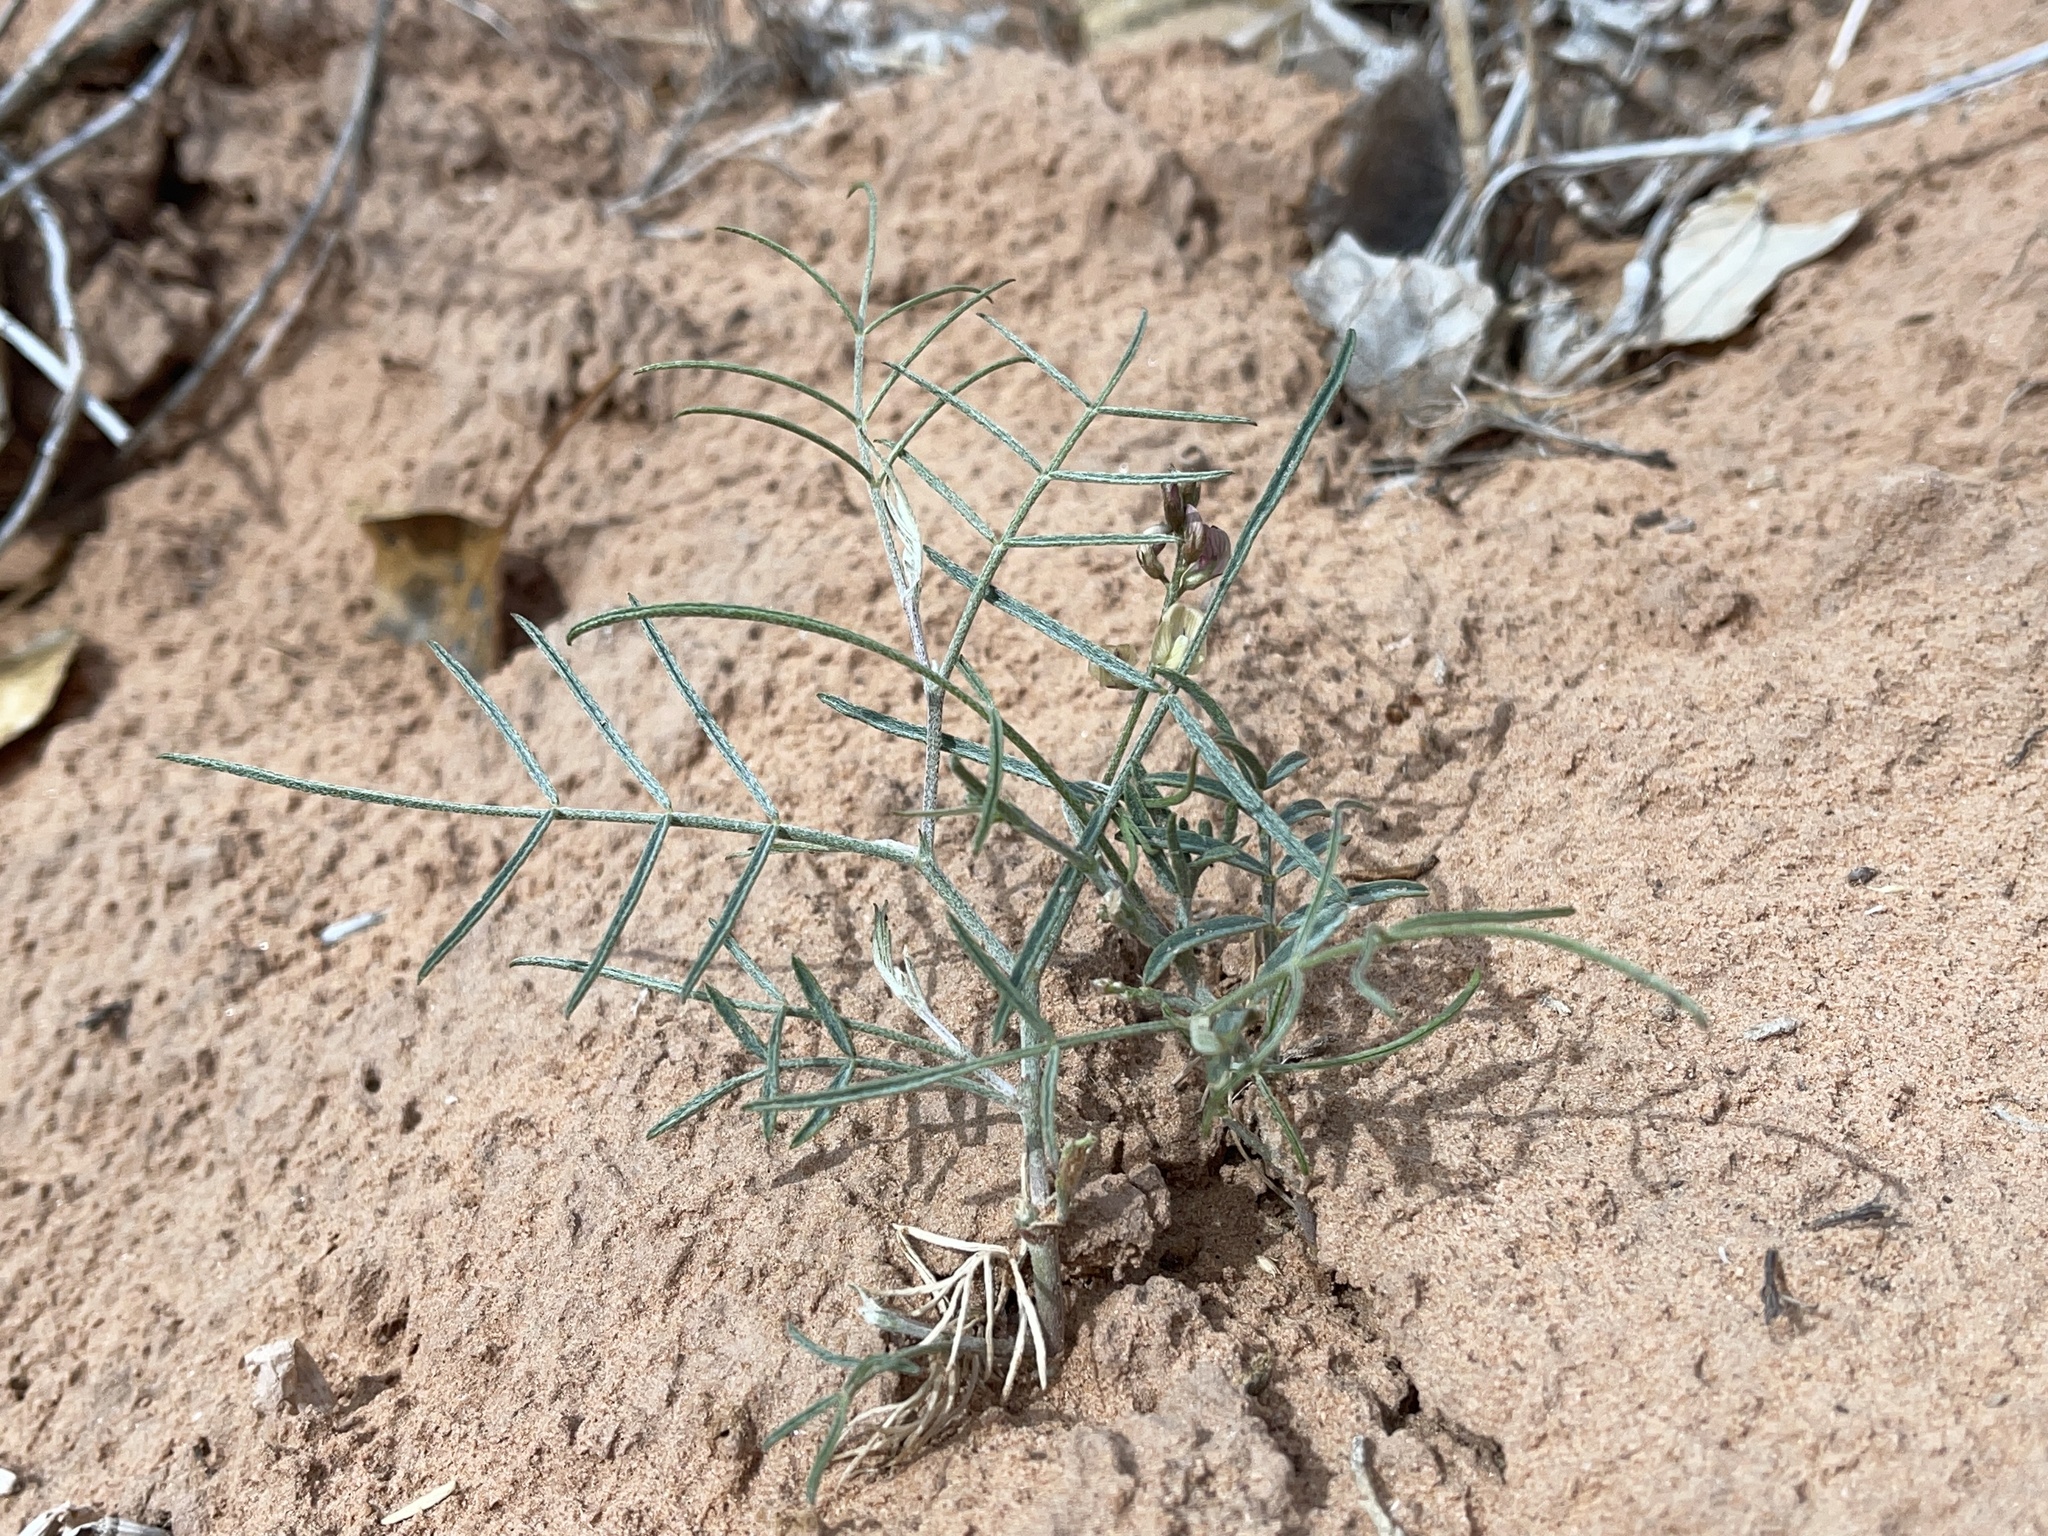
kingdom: Plantae
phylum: Tracheophyta
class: Magnoliopsida
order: Fabales
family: Fabaceae
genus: Astragalus
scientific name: Astragalus ceramicus
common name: Painted milk-vetch
